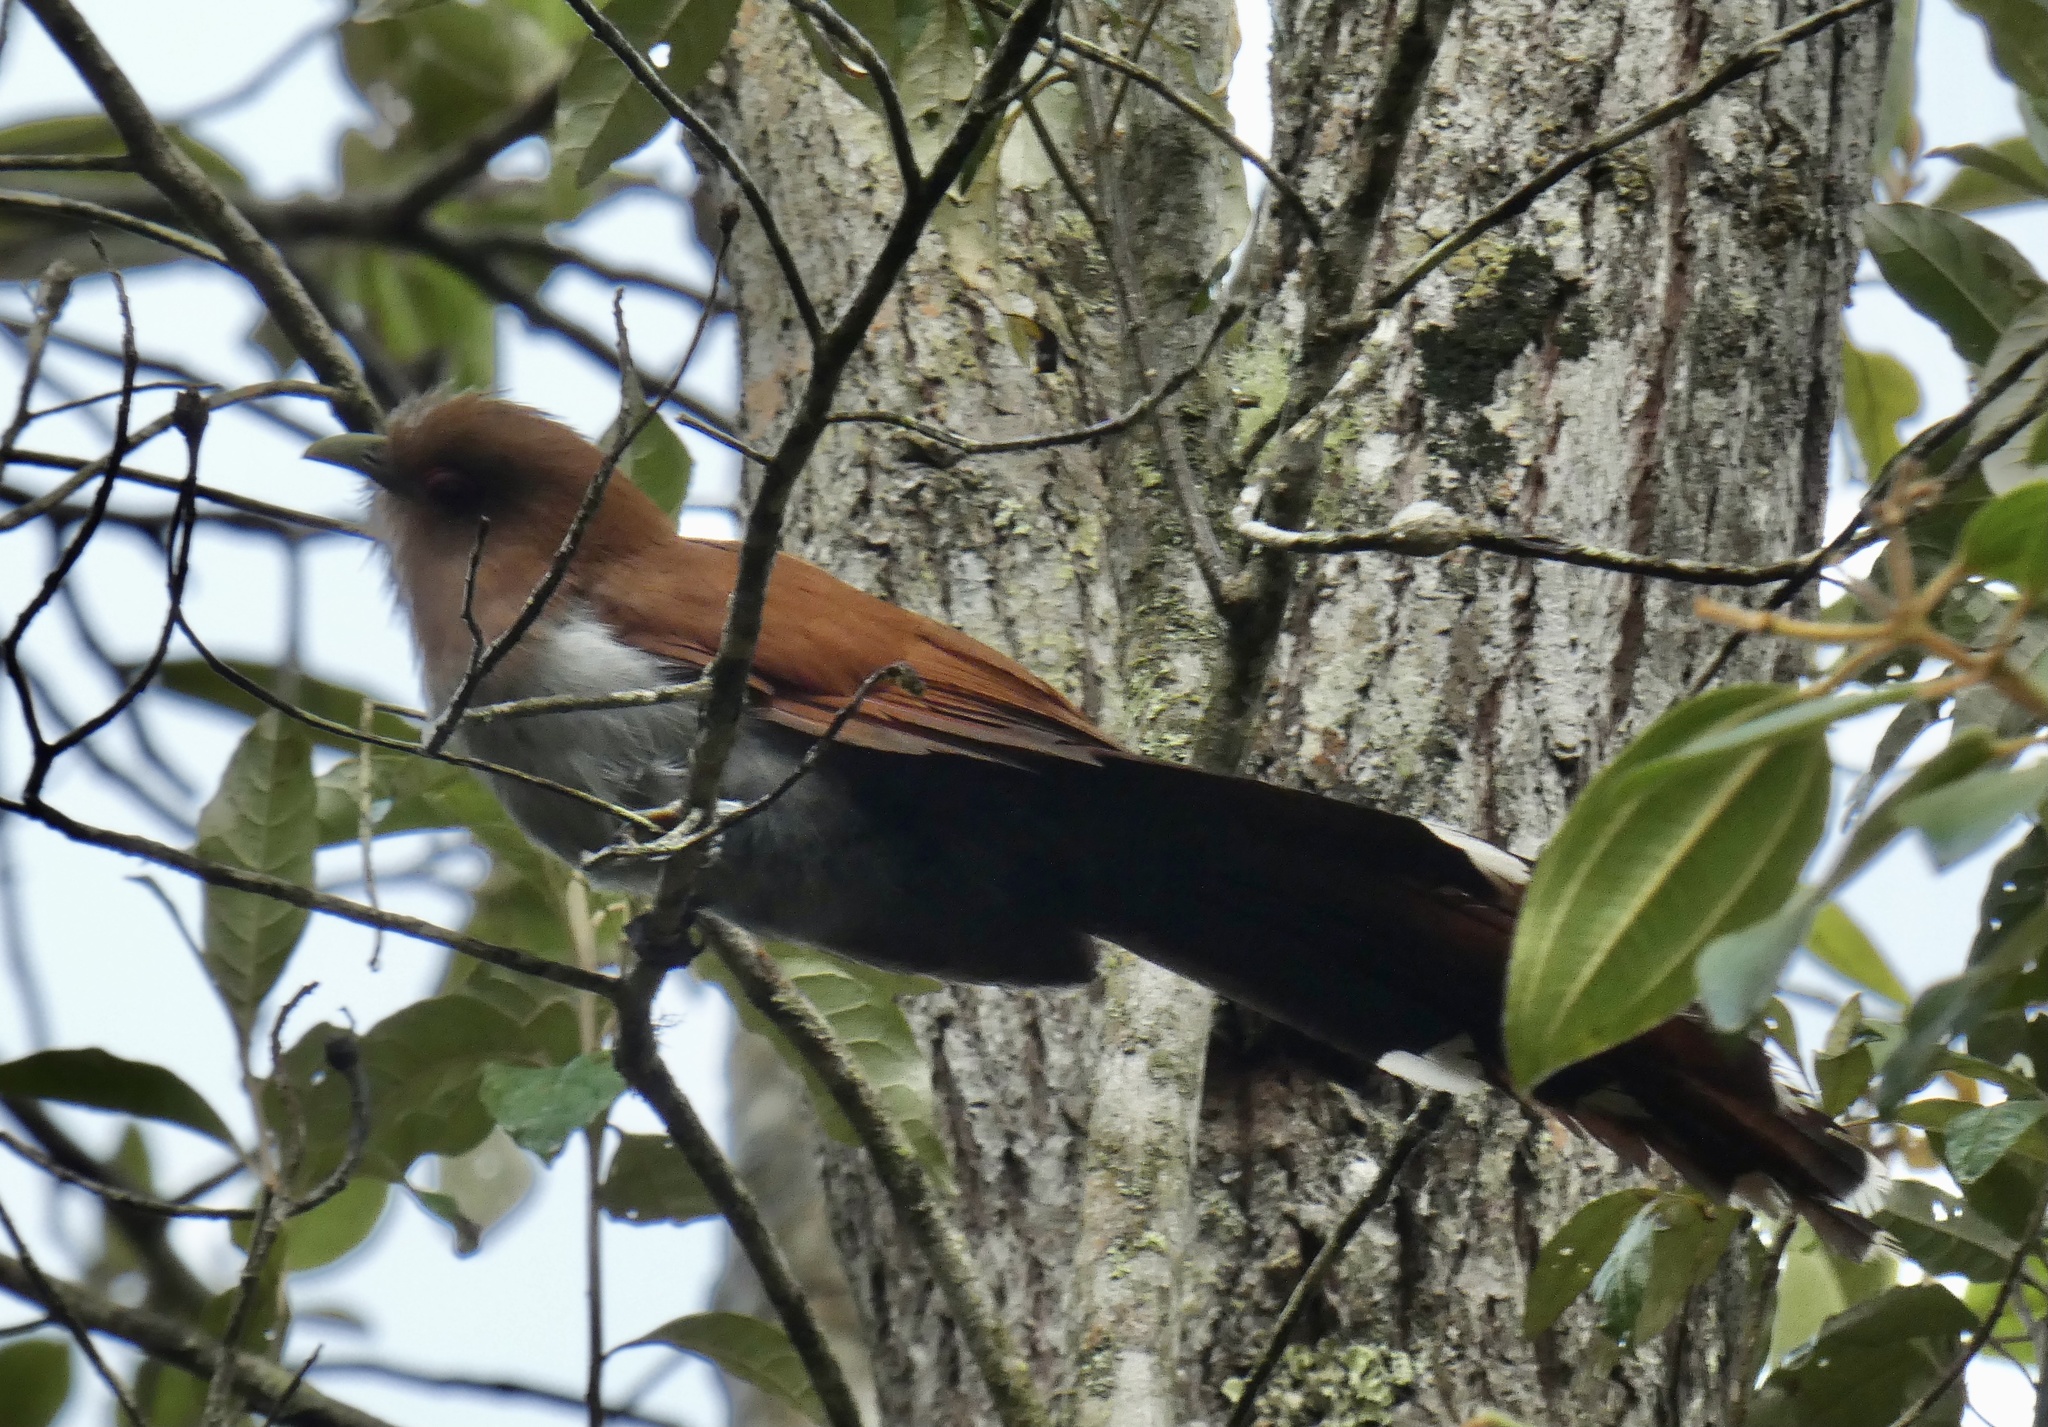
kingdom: Animalia
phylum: Chordata
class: Aves
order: Cuculiformes
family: Cuculidae
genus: Piaya
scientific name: Piaya cayana
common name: Squirrel cuckoo
